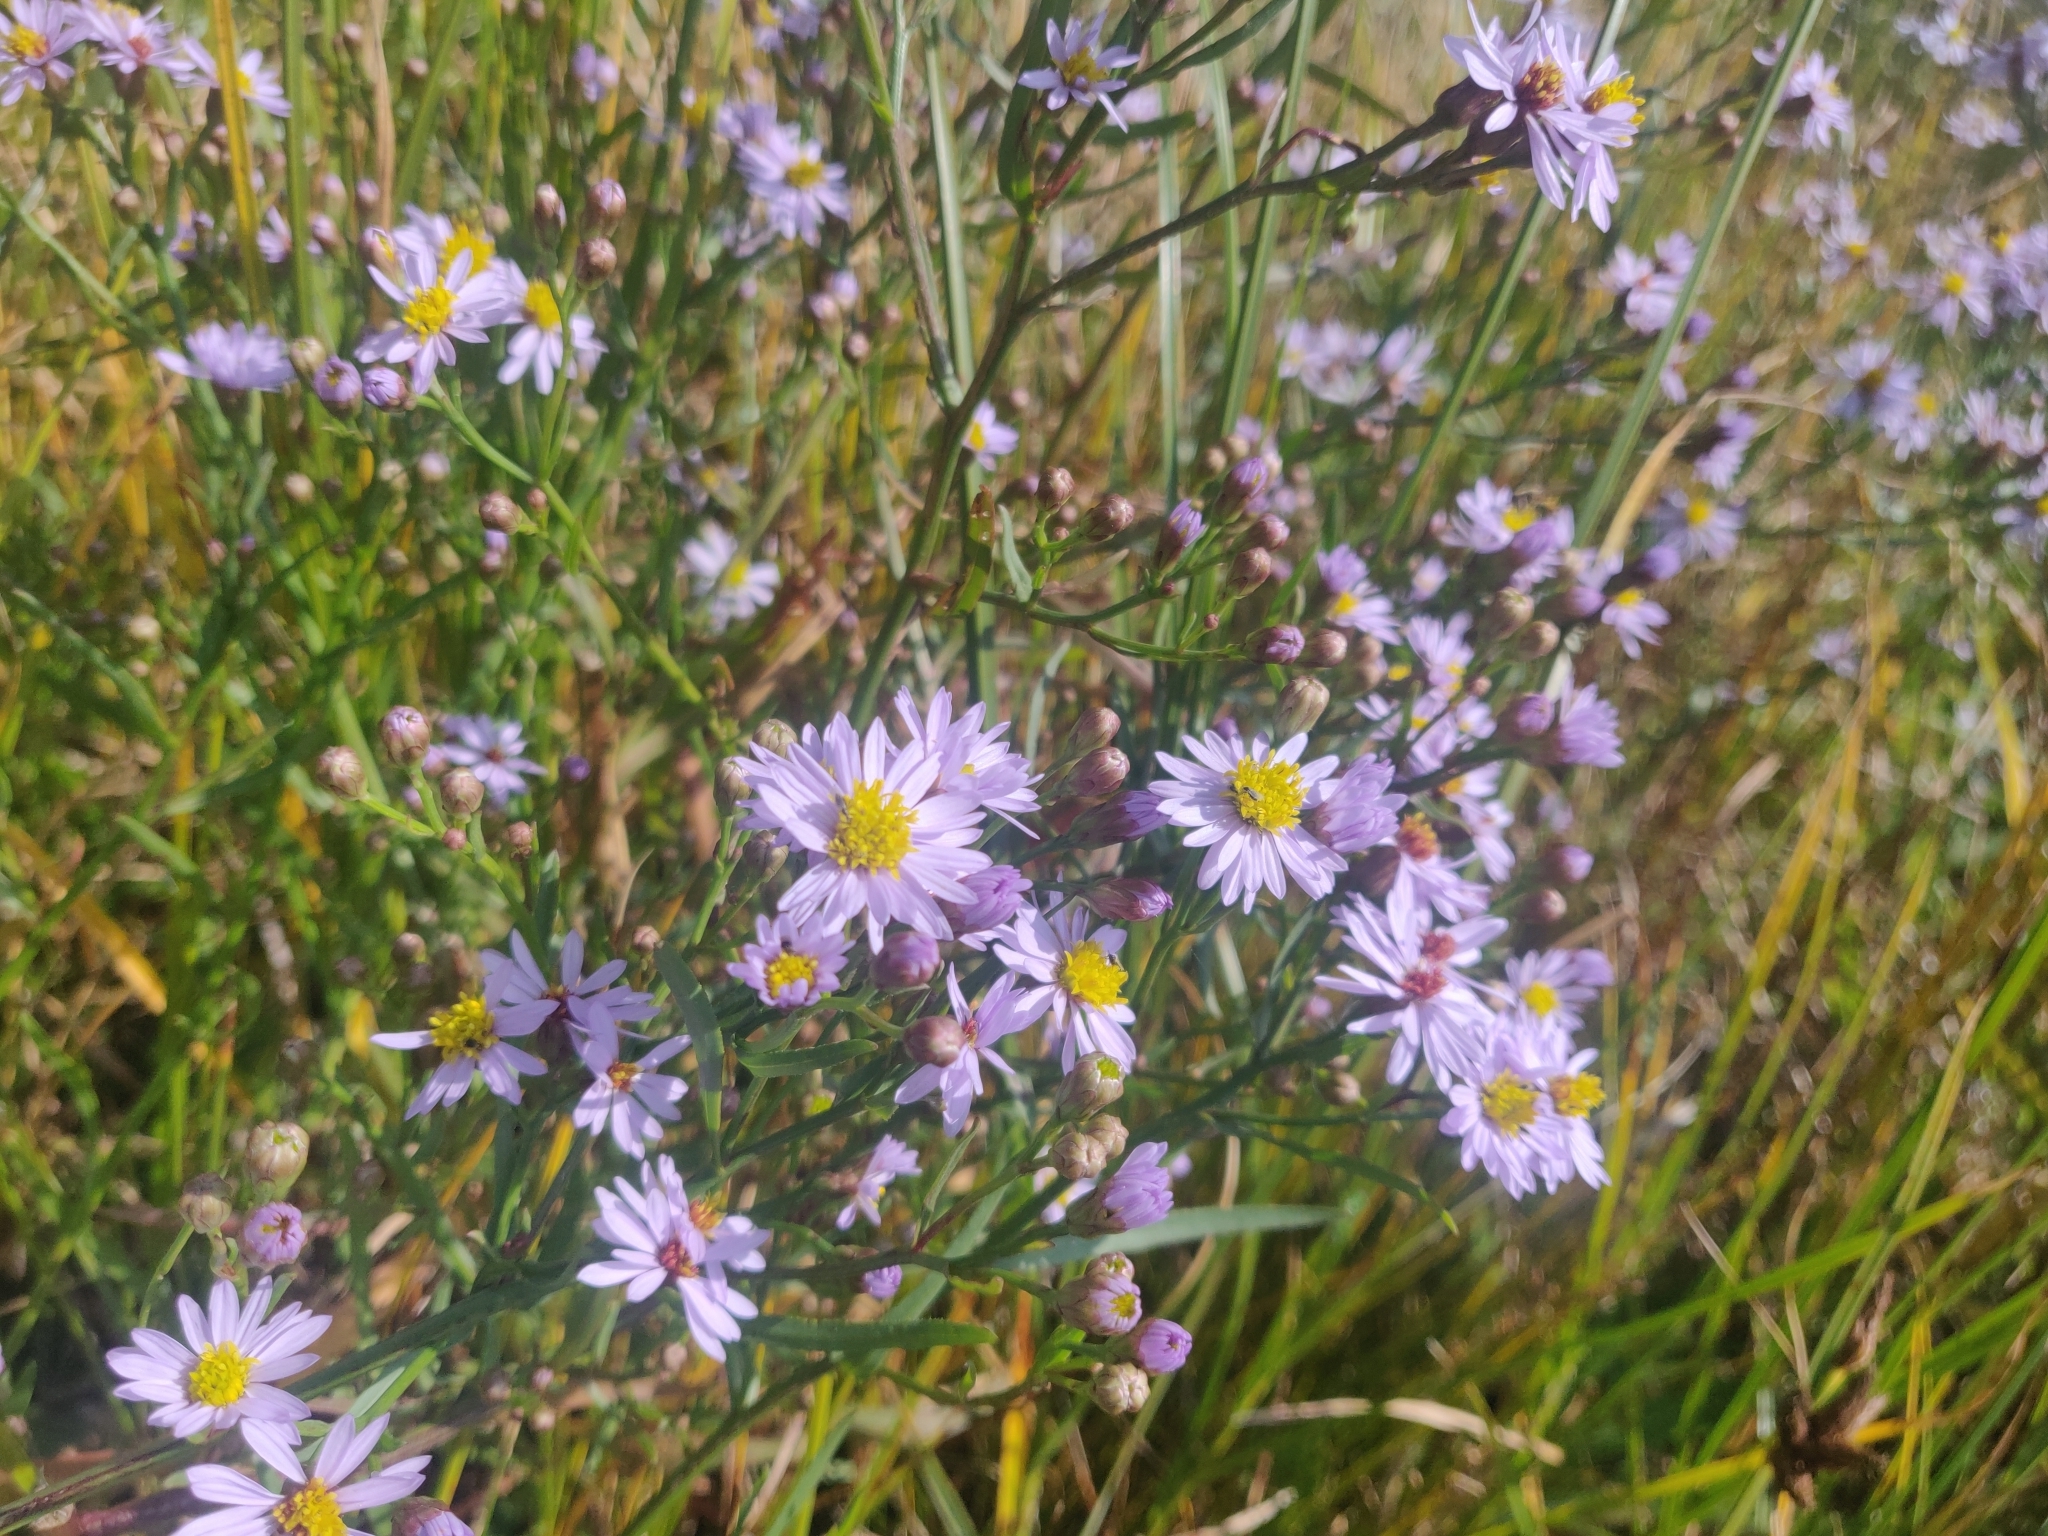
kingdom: Plantae
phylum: Tracheophyta
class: Magnoliopsida
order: Asterales
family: Asteraceae
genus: Tripolium
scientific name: Tripolium pannonicum
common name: Sea aster
